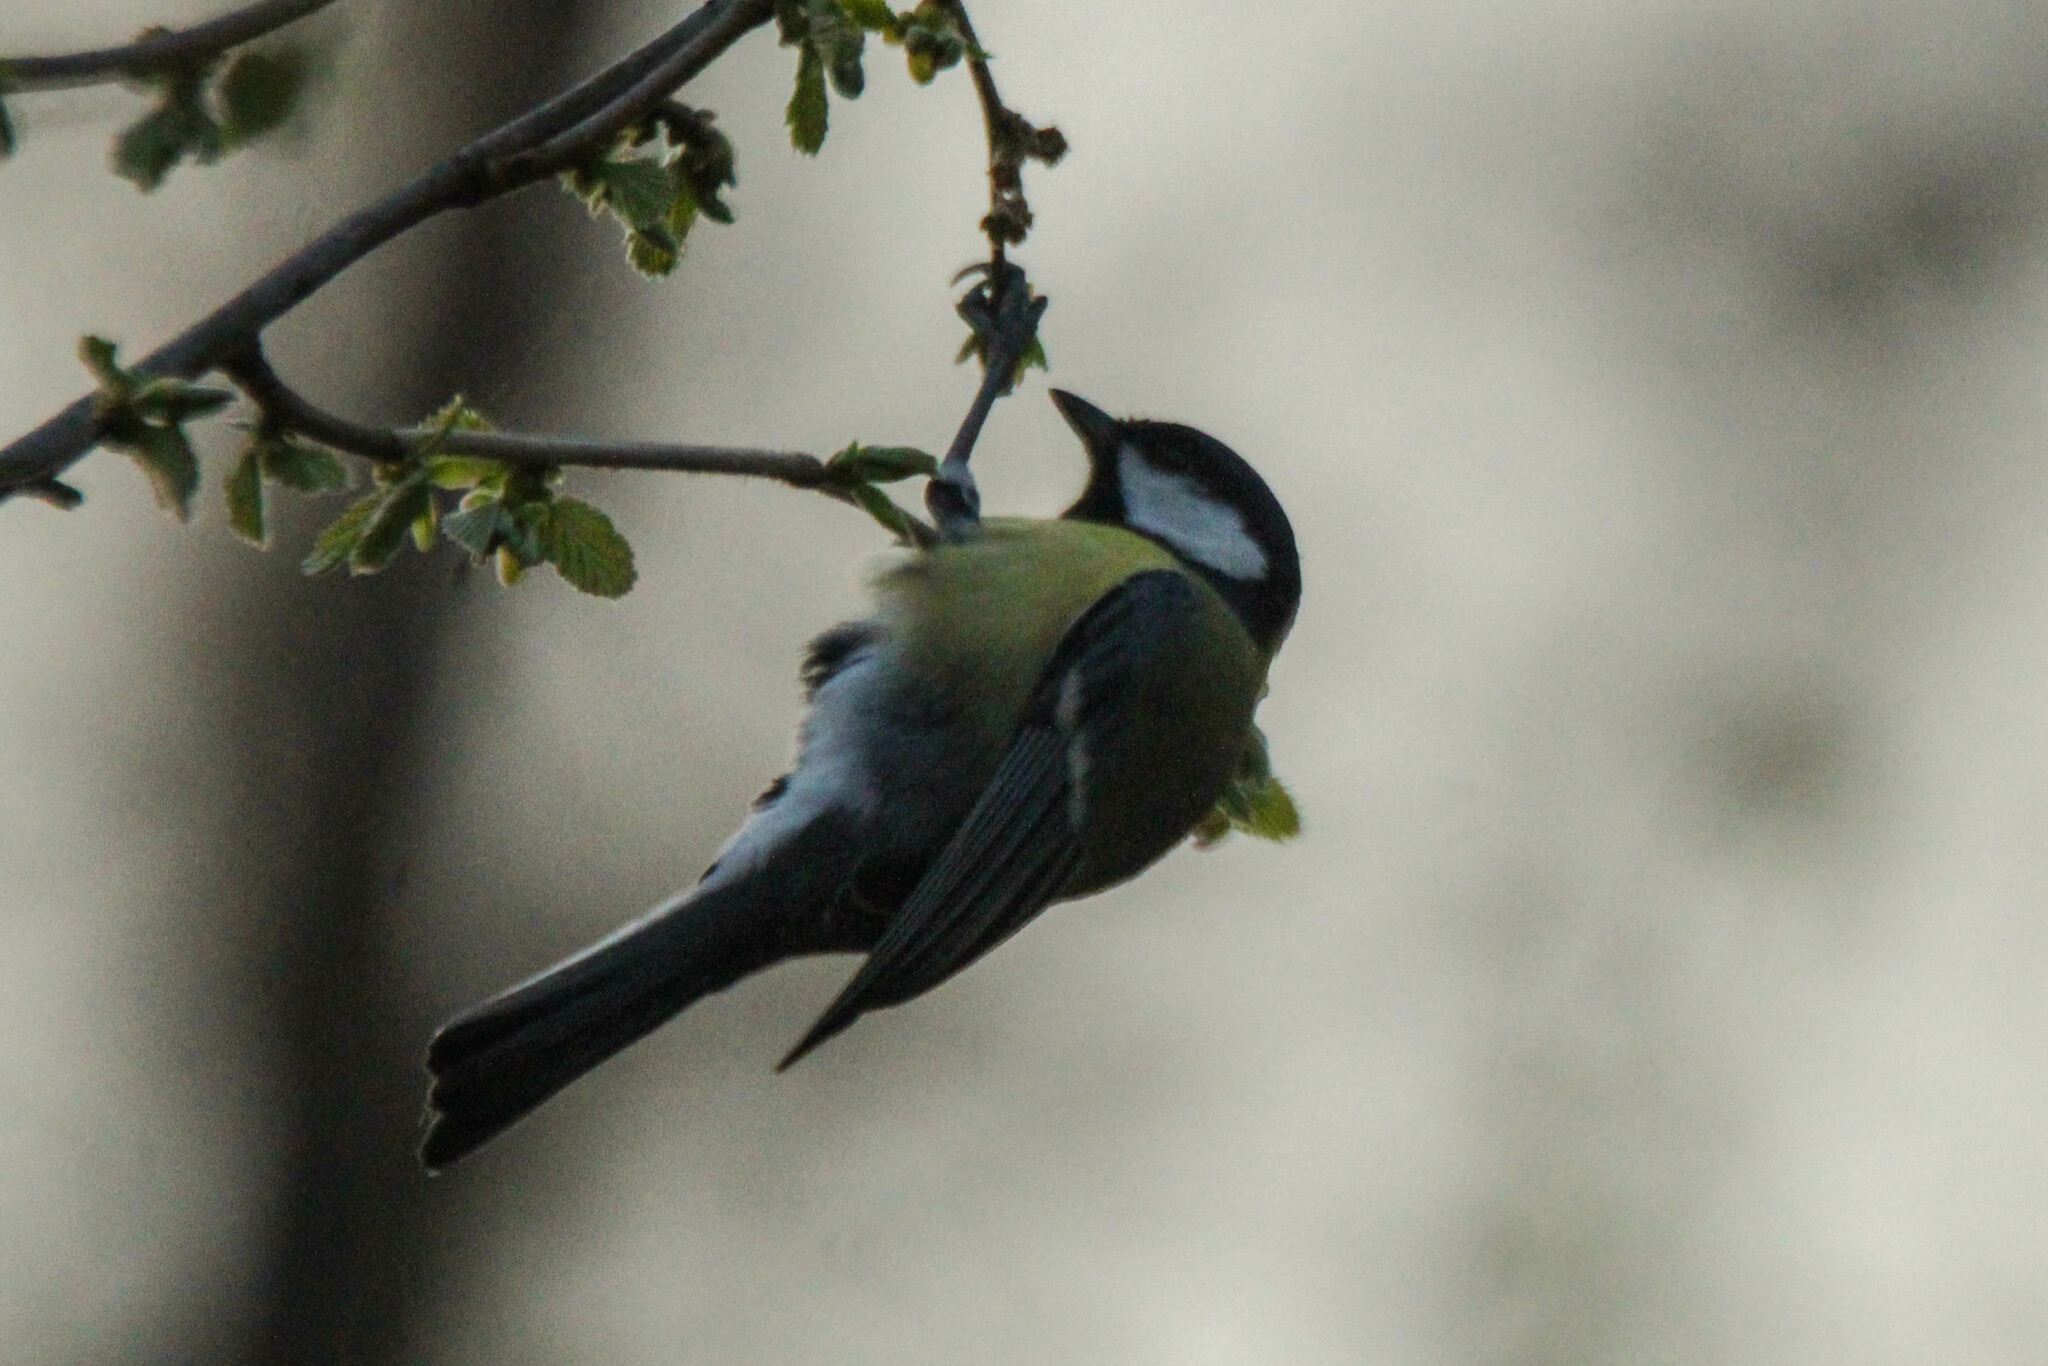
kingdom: Animalia
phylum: Chordata
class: Aves
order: Passeriformes
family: Paridae
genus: Parus
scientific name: Parus major
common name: Great tit
